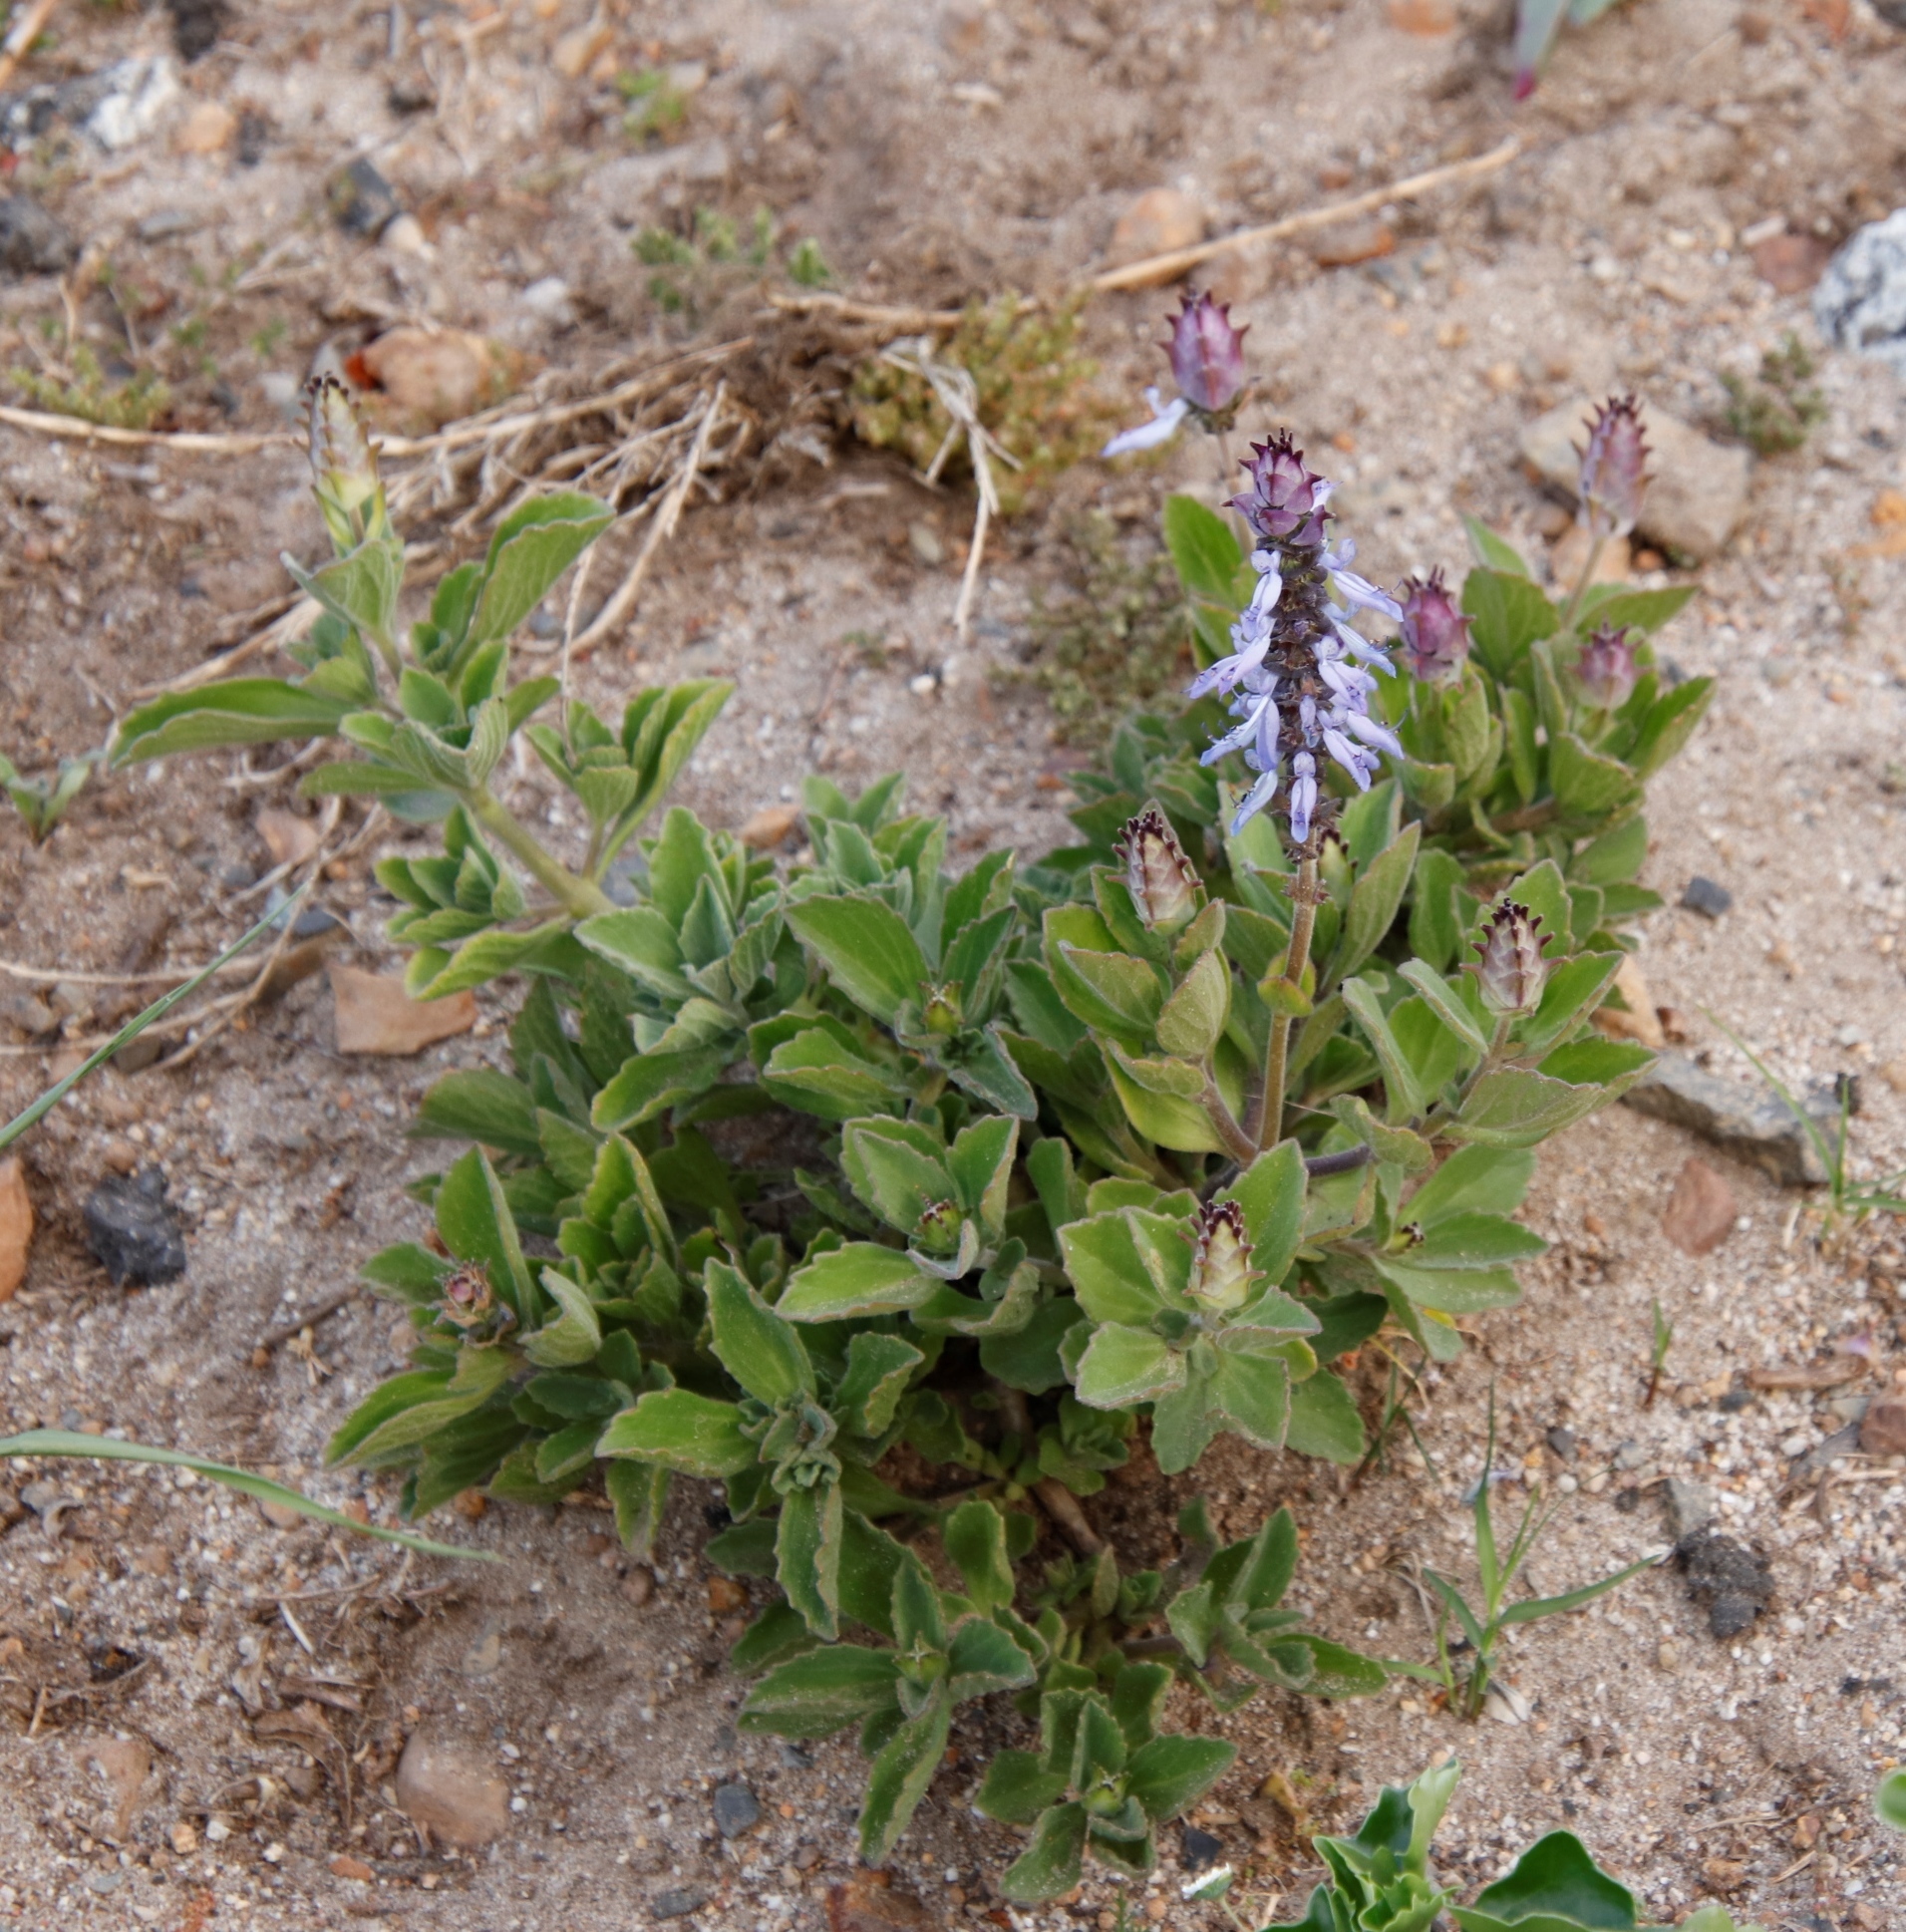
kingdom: Plantae
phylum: Tracheophyta
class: Magnoliopsida
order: Lamiales
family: Lamiaceae
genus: Coleus
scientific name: Coleus neochilus
